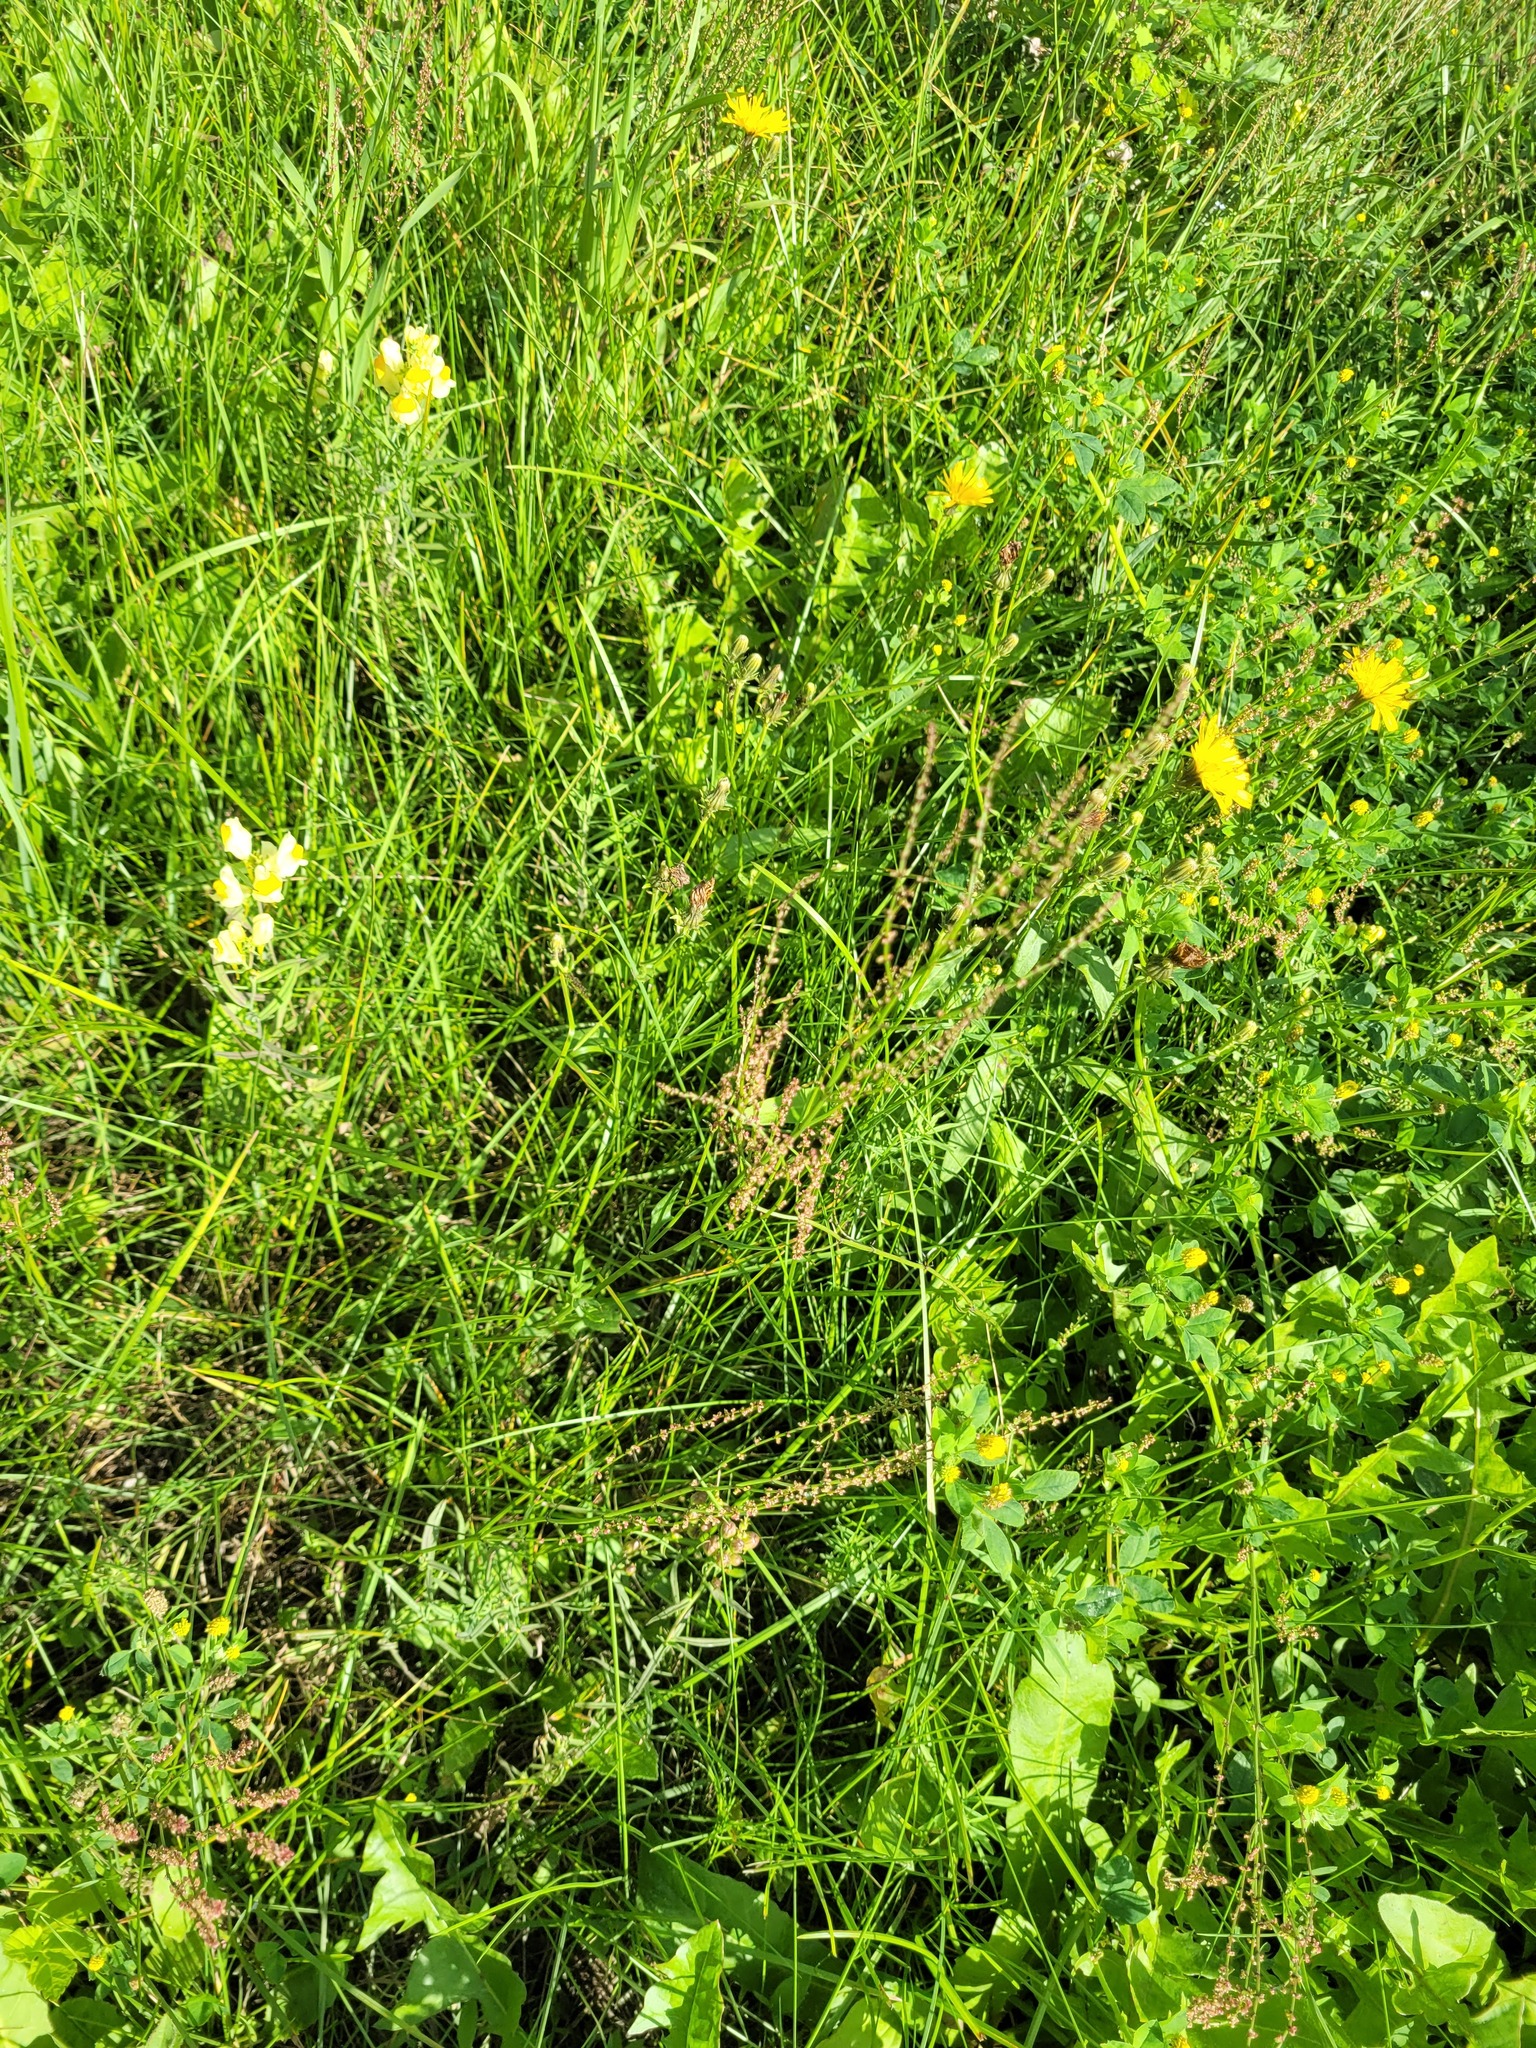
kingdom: Plantae
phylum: Tracheophyta
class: Magnoliopsida
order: Caryophyllales
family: Polygonaceae
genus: Rumex
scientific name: Rumex acetosella
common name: Common sheep sorrel
